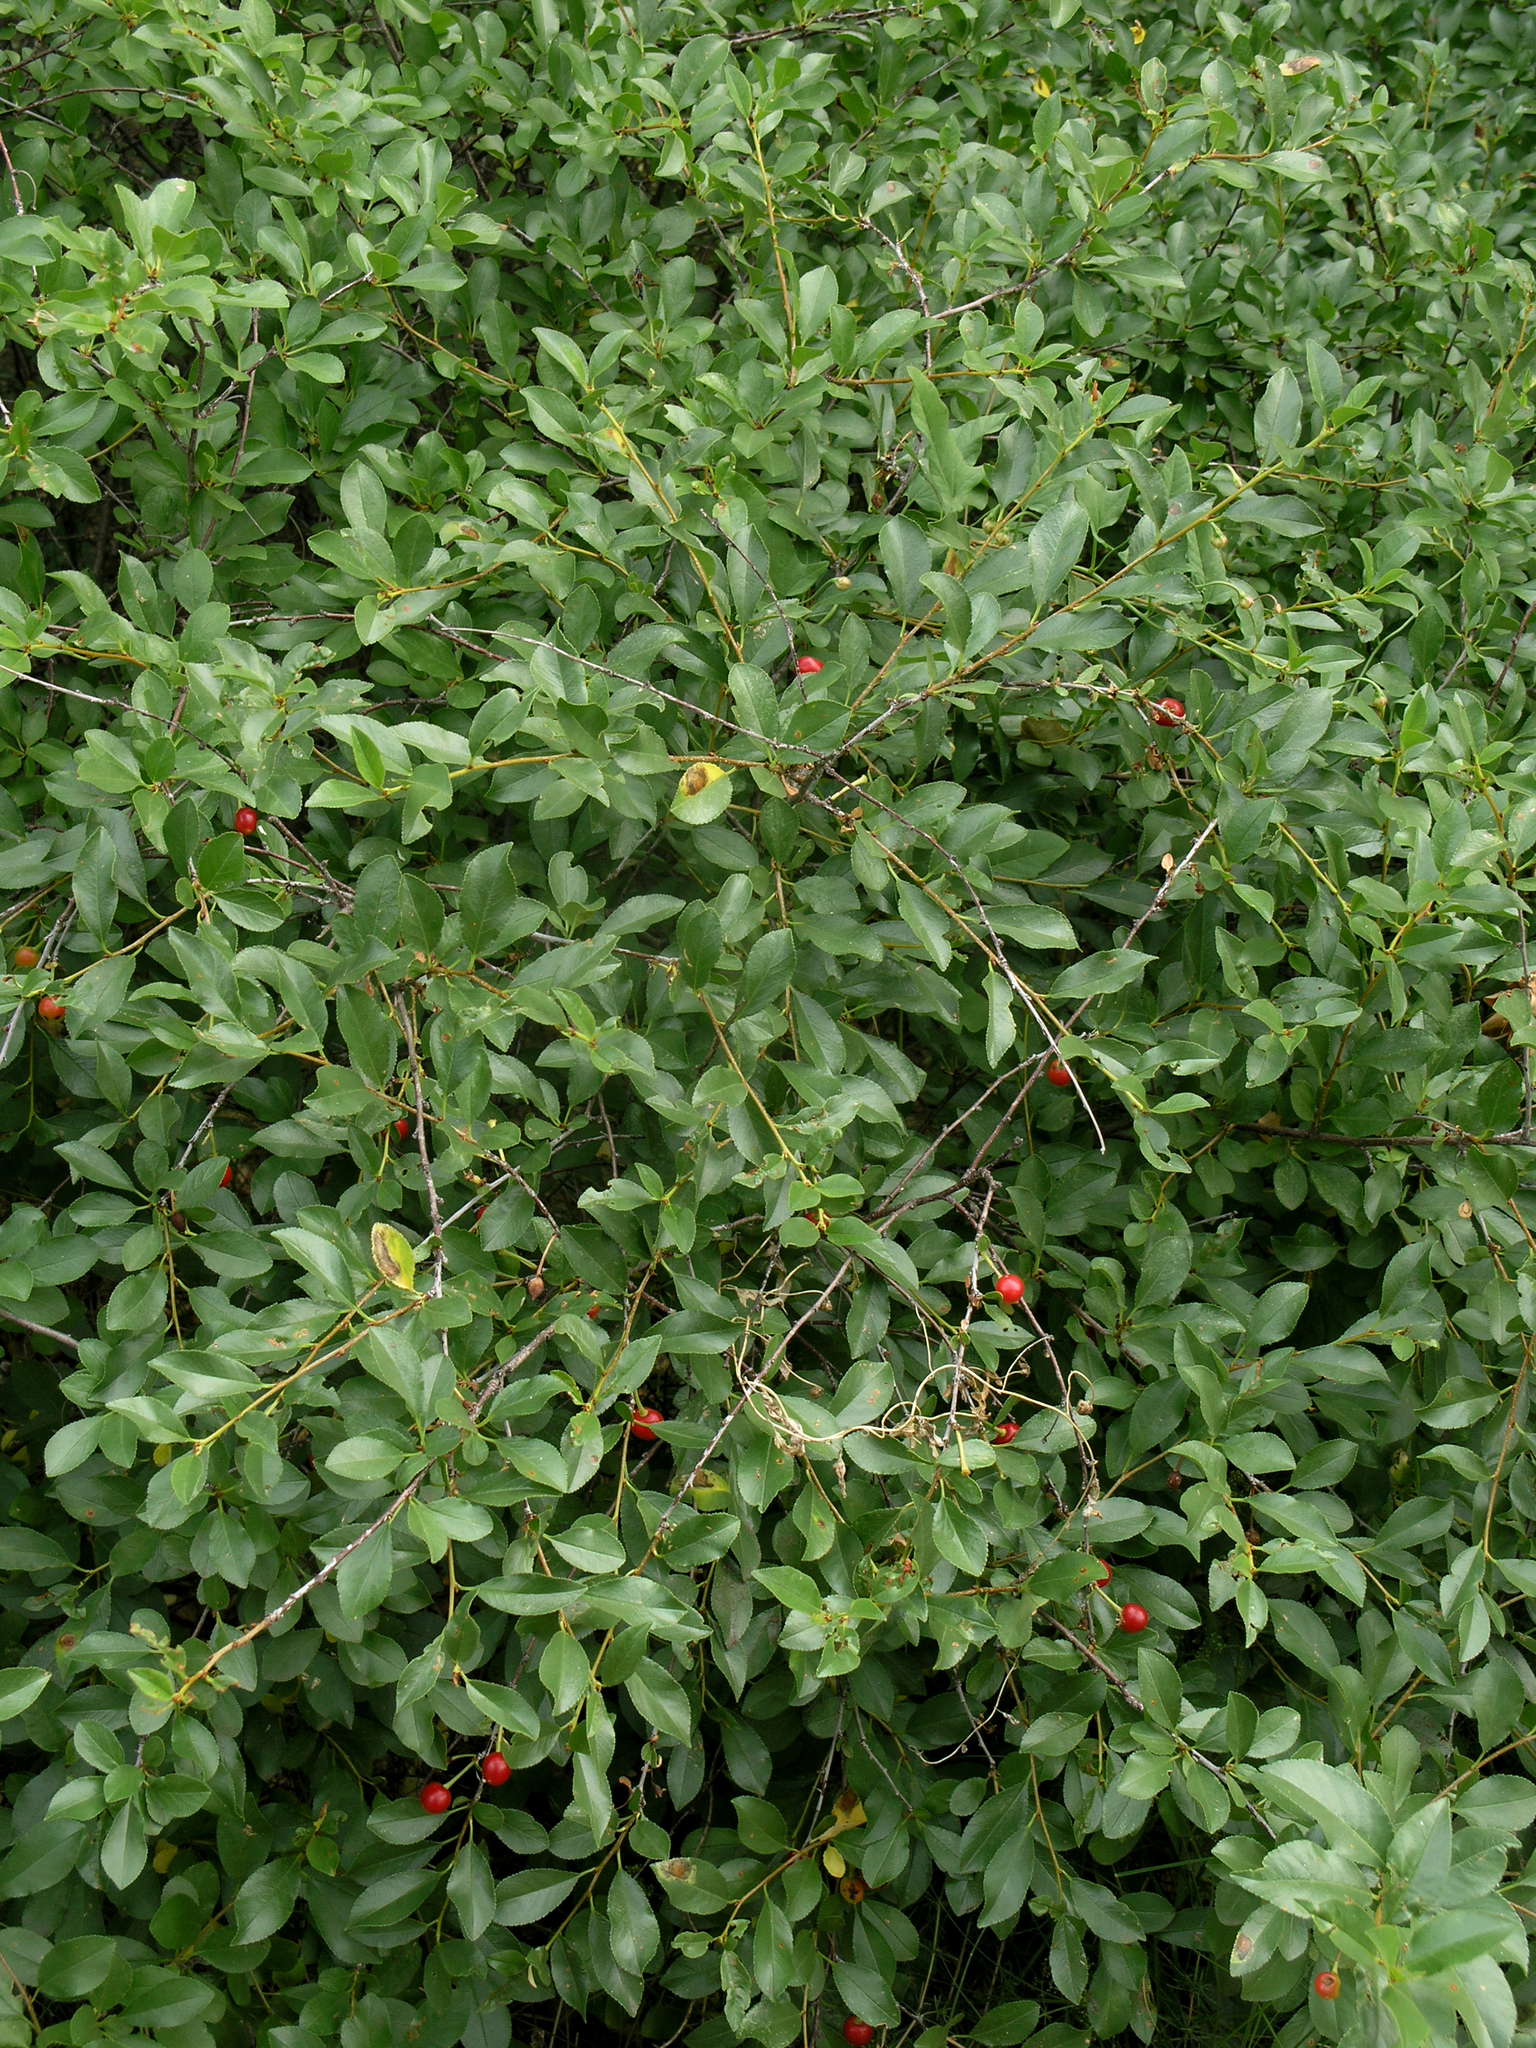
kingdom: Plantae
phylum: Tracheophyta
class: Magnoliopsida
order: Rosales
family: Rosaceae
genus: Prunus
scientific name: Prunus fruticosa
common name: European dwarf cherry
